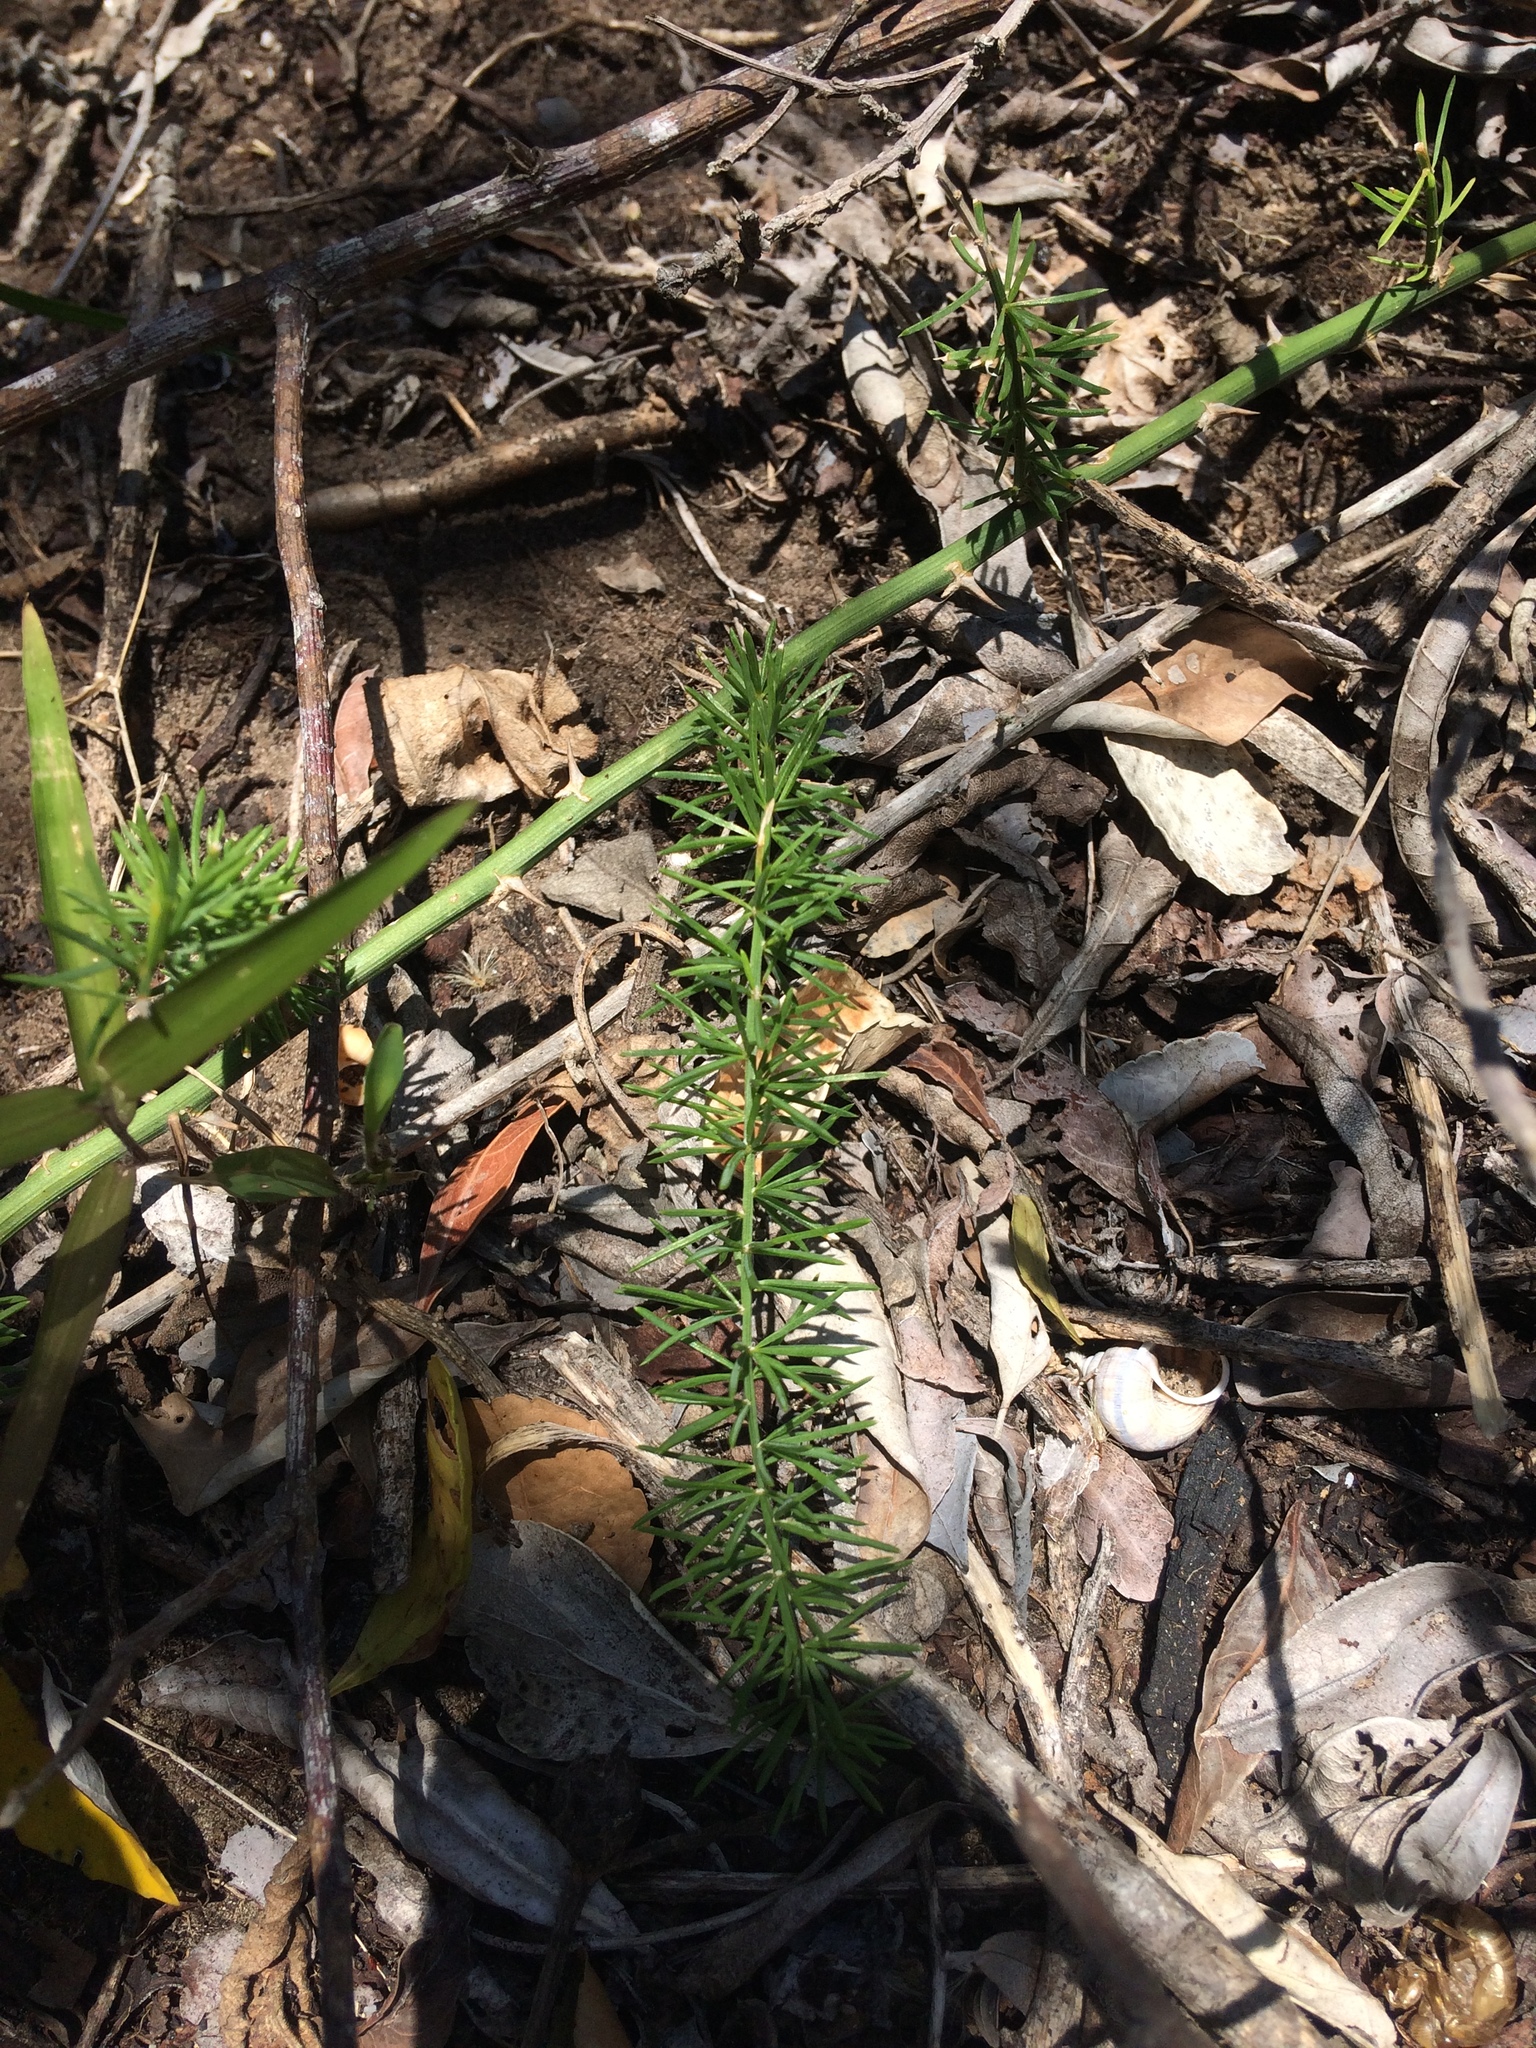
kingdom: Plantae
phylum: Tracheophyta
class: Liliopsida
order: Asparagales
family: Asparagaceae
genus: Asparagus
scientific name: Asparagus africanus
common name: Asparagus-fern
